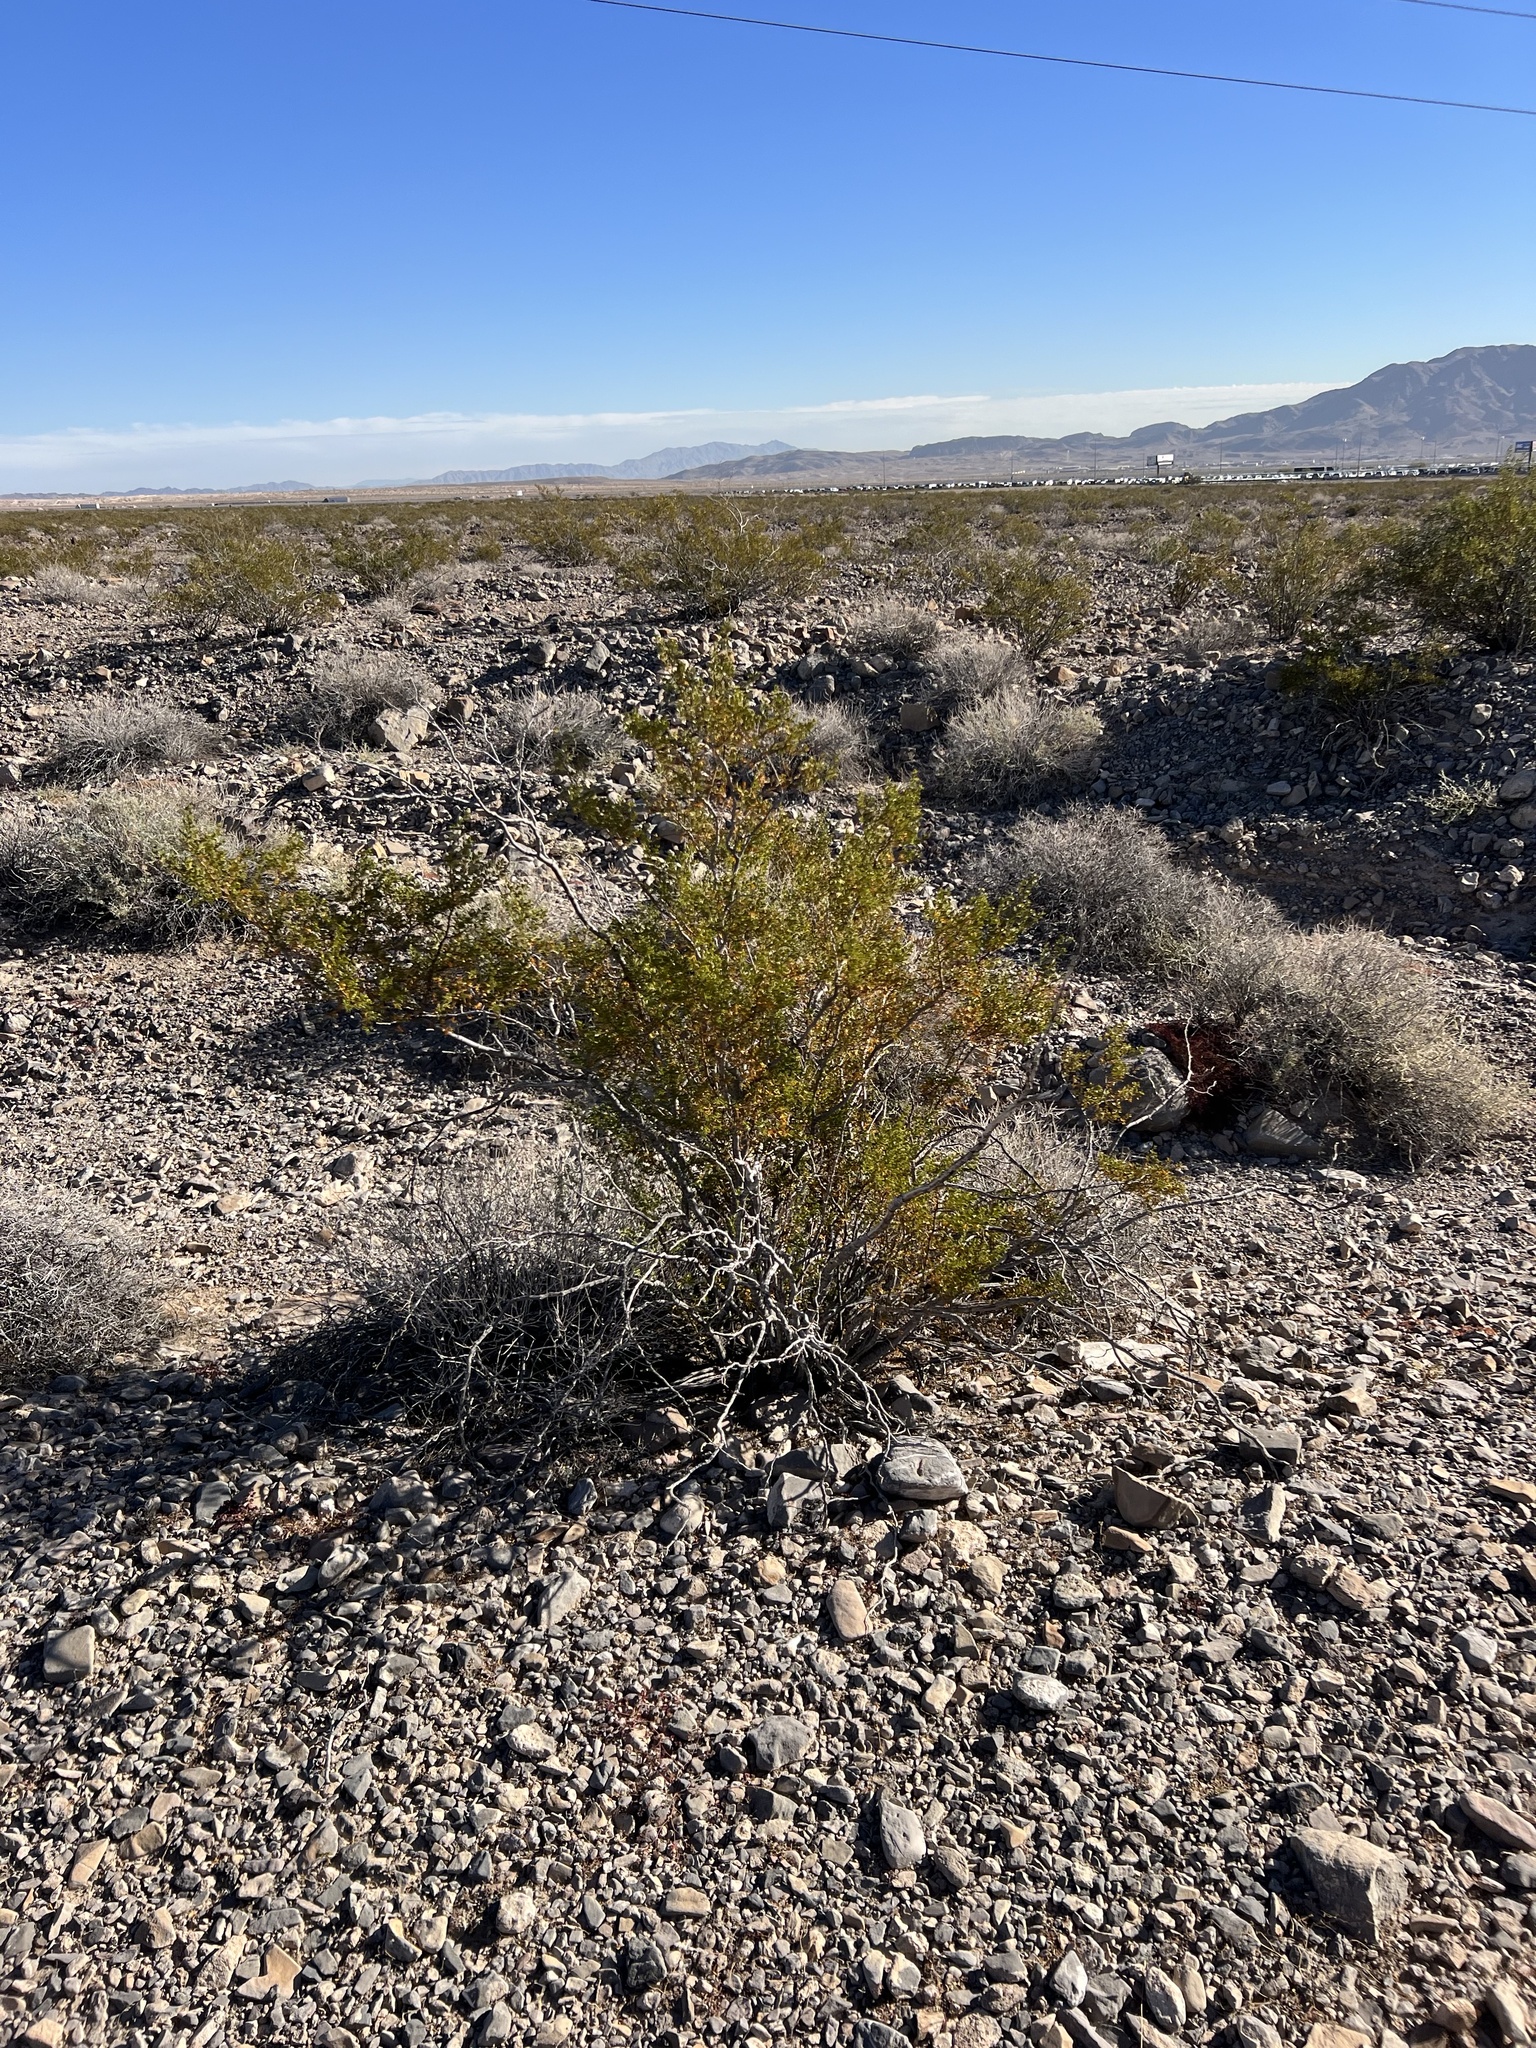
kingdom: Plantae
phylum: Tracheophyta
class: Magnoliopsida
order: Zygophyllales
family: Zygophyllaceae
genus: Larrea
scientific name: Larrea tridentata
